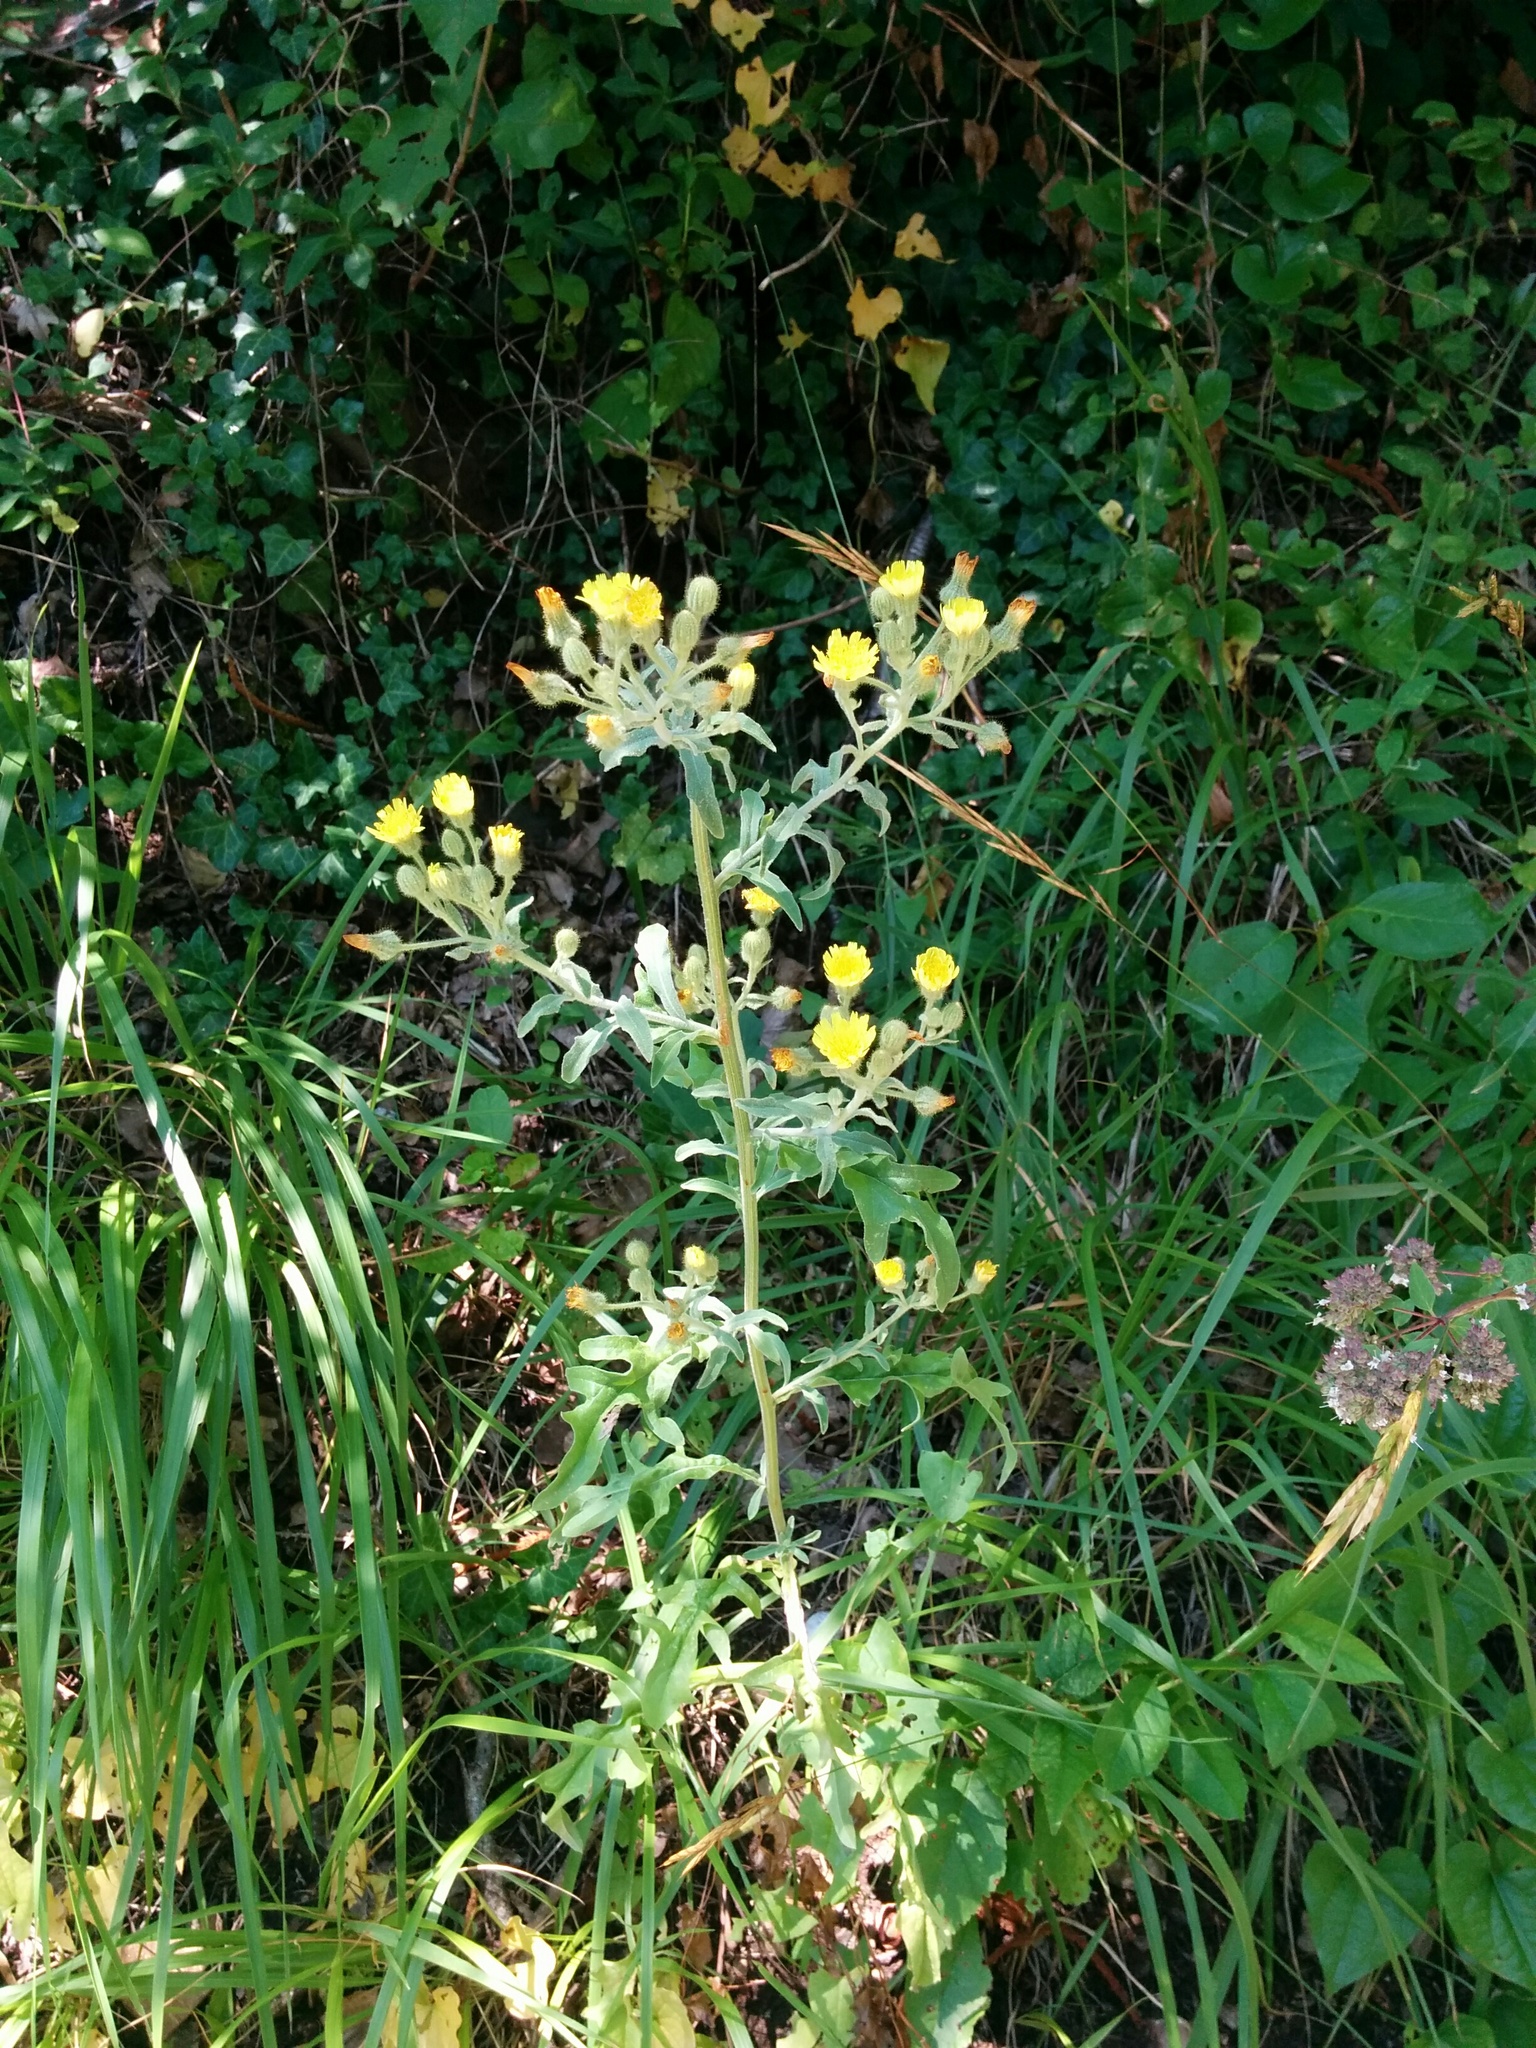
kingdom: Plantae
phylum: Tracheophyta
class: Magnoliopsida
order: Asterales
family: Asteraceae
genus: Andryala
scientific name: Andryala integrifolia
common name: Common andryala
